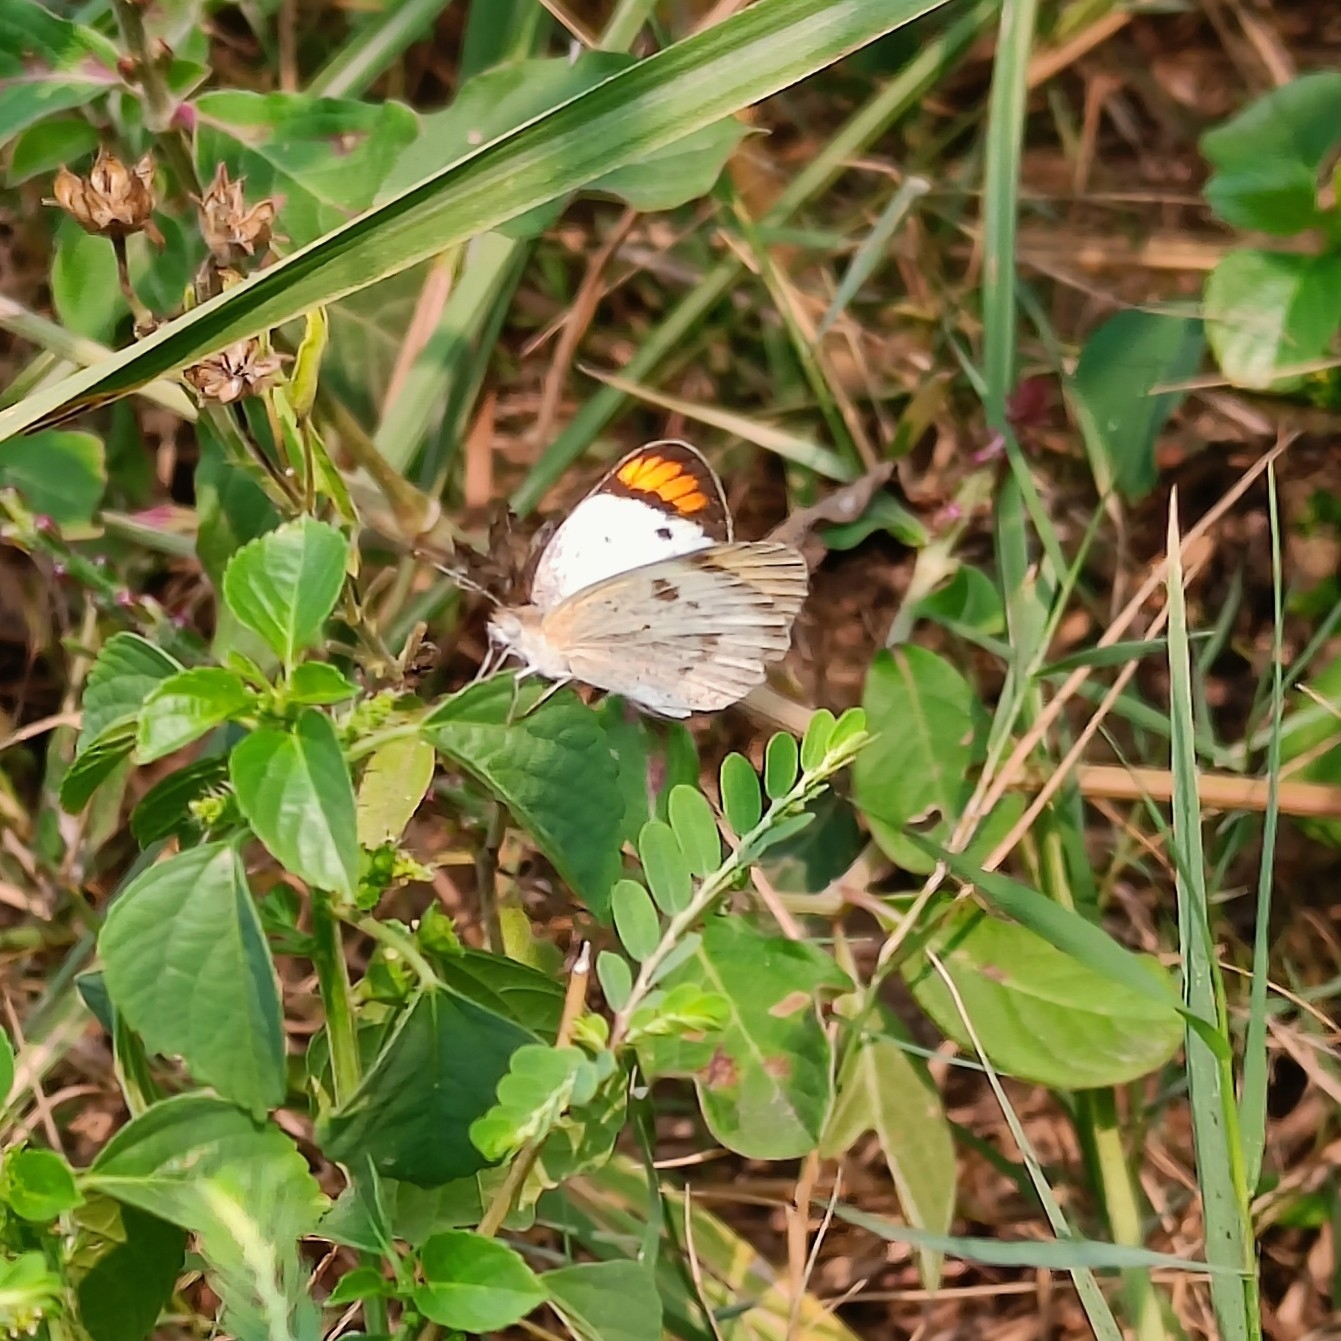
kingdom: Animalia
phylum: Arthropoda
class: Insecta
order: Lepidoptera
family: Pieridae
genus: Colotis
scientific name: Colotis etrida
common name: Little orange tip
